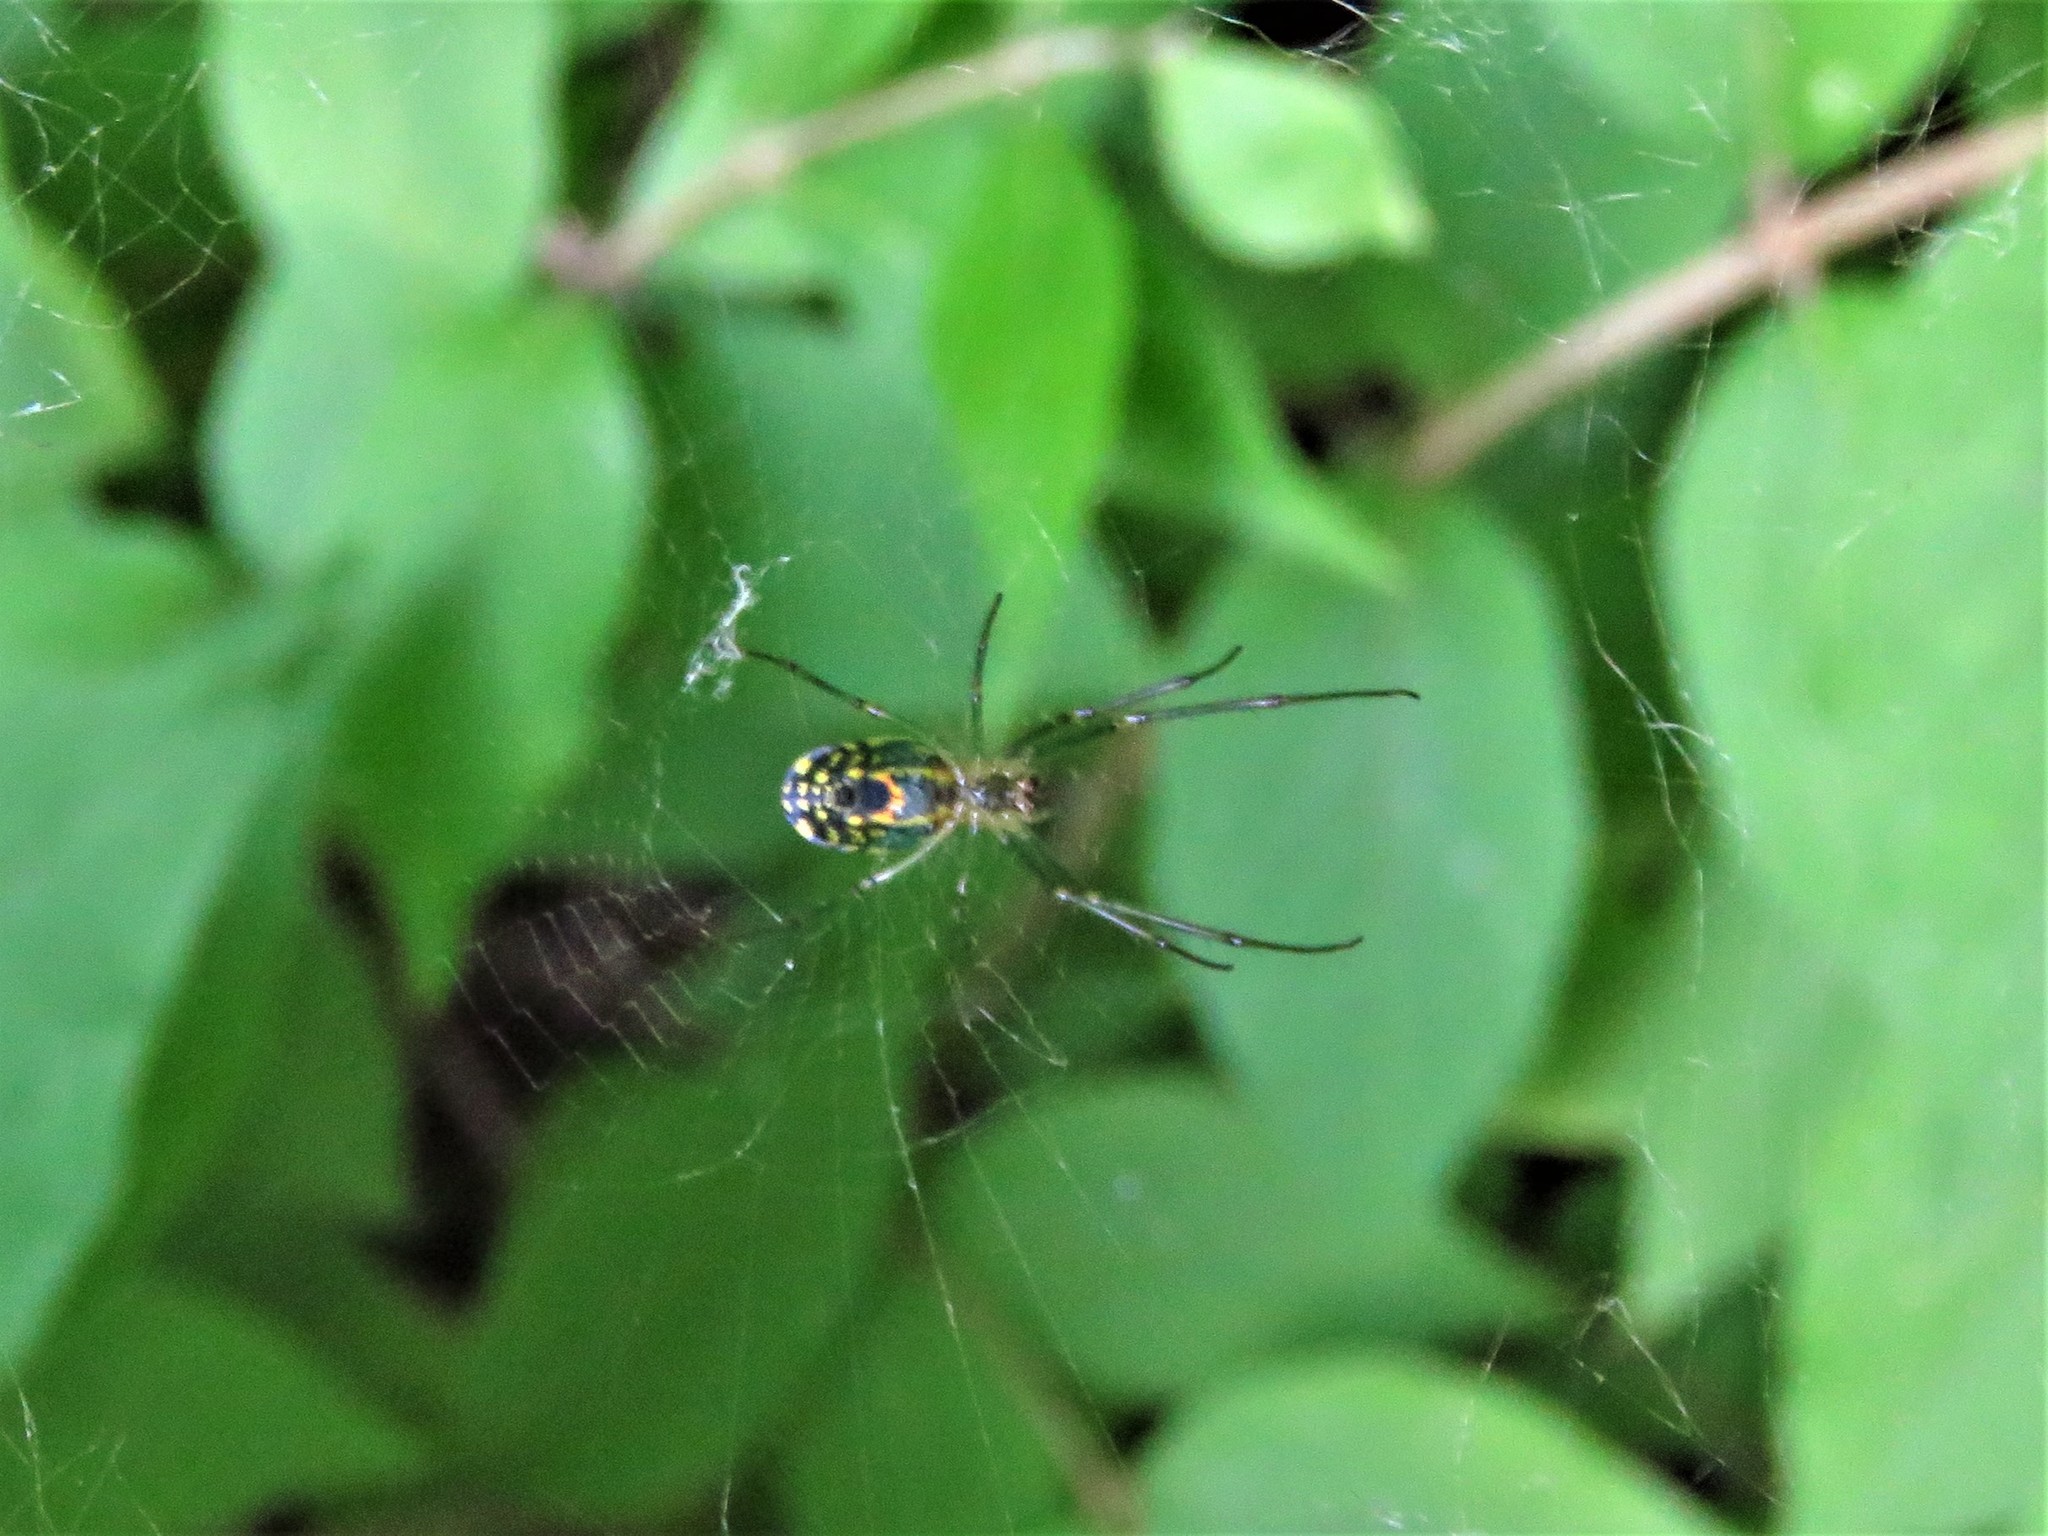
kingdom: Animalia
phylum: Arthropoda
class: Arachnida
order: Araneae
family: Tetragnathidae
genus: Leucauge
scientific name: Leucauge venusta
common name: Longjawed orb weavers
